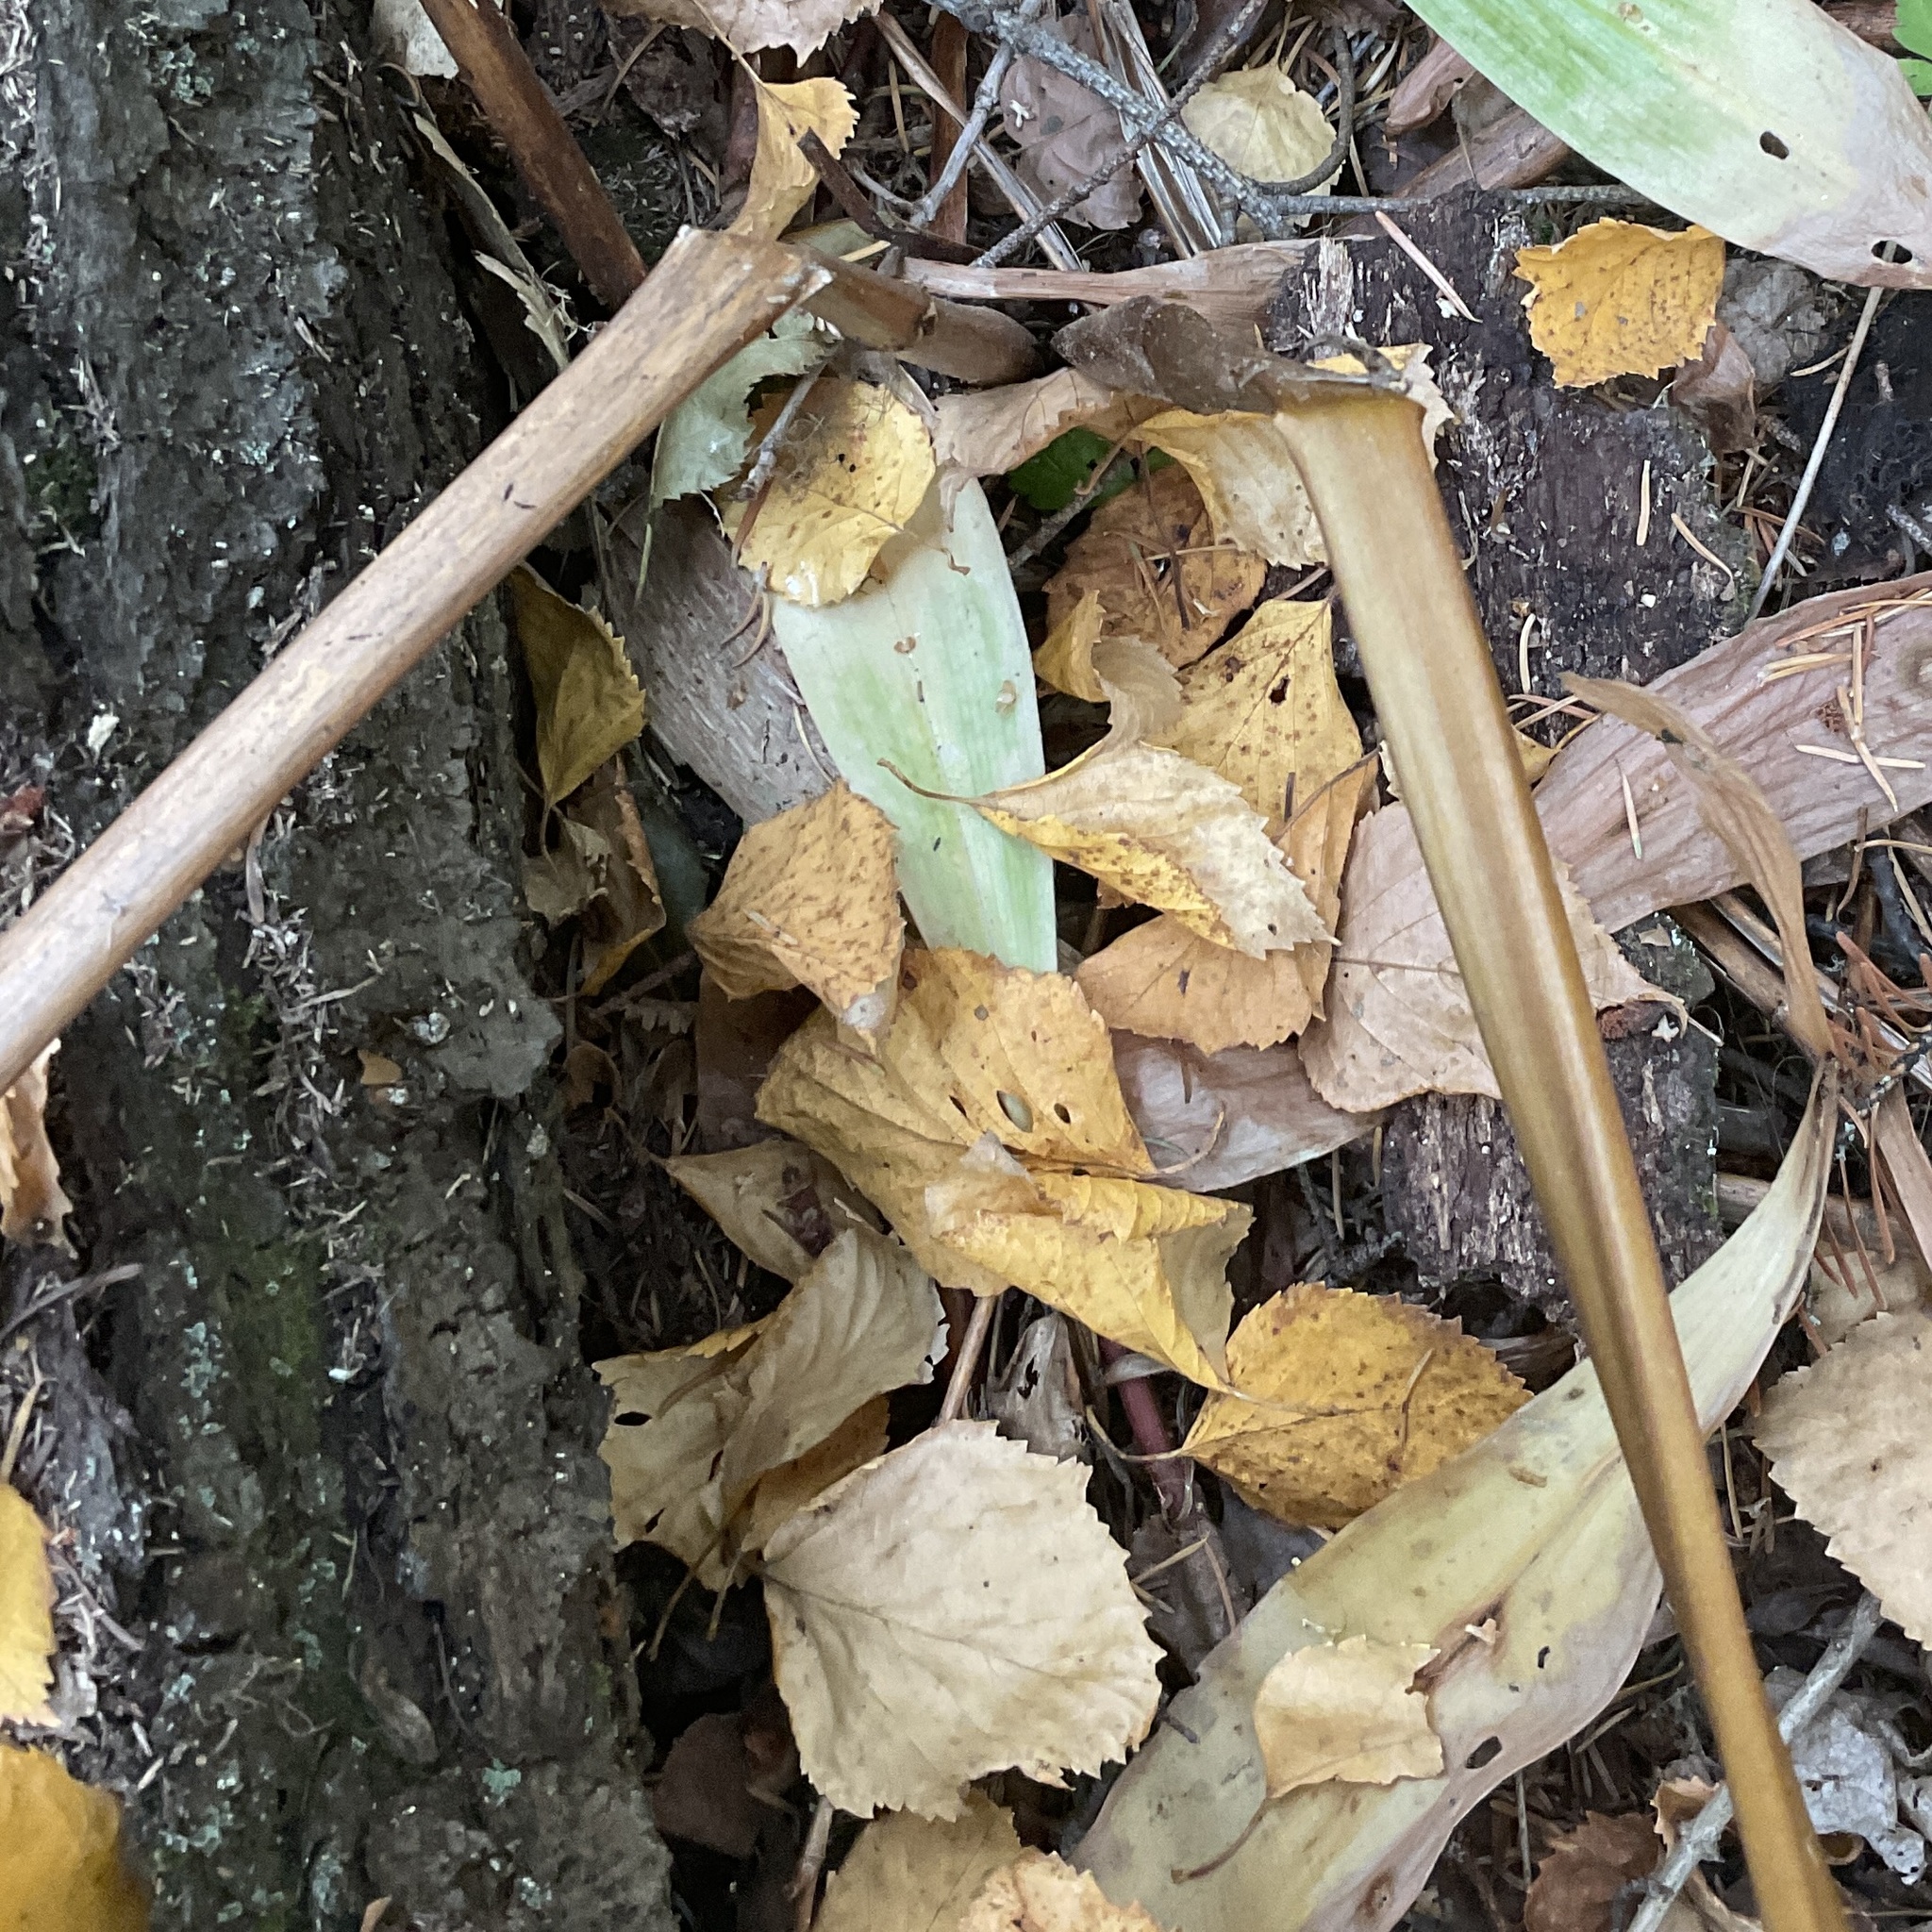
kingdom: Plantae
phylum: Tracheophyta
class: Liliopsida
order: Liliales
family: Liliaceae
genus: Prosartes
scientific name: Prosartes hookeri
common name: Fairy-bells
